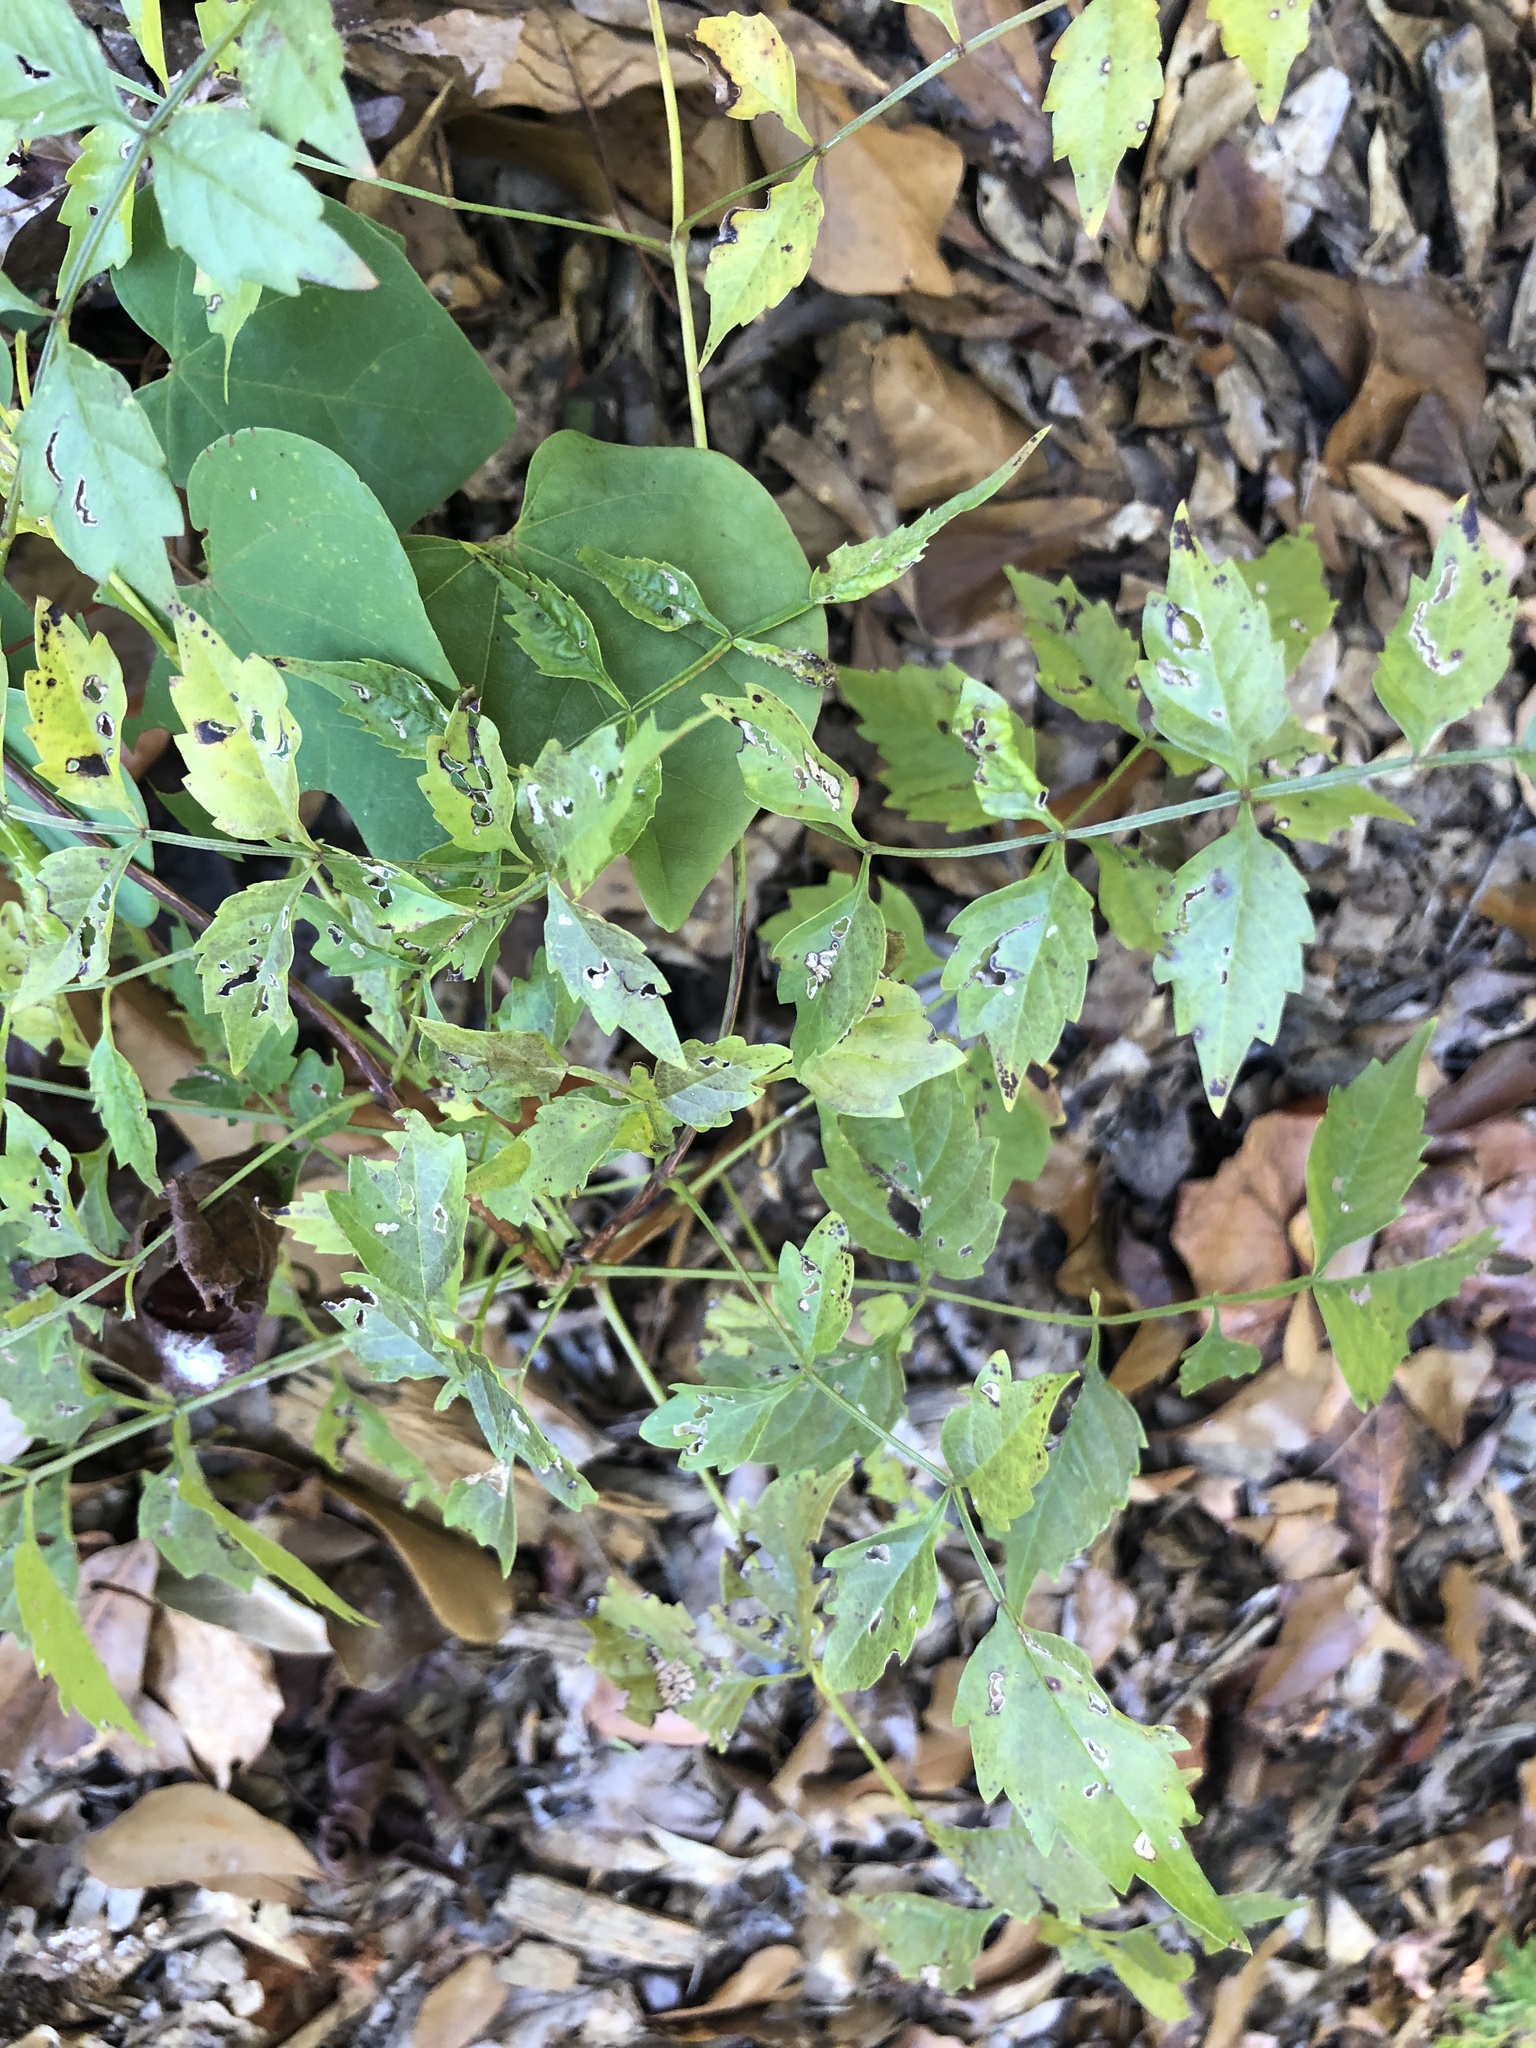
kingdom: Plantae
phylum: Tracheophyta
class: Magnoliopsida
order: Lamiales
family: Bignoniaceae
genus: Campsis
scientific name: Campsis radicans
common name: Trumpet-creeper
